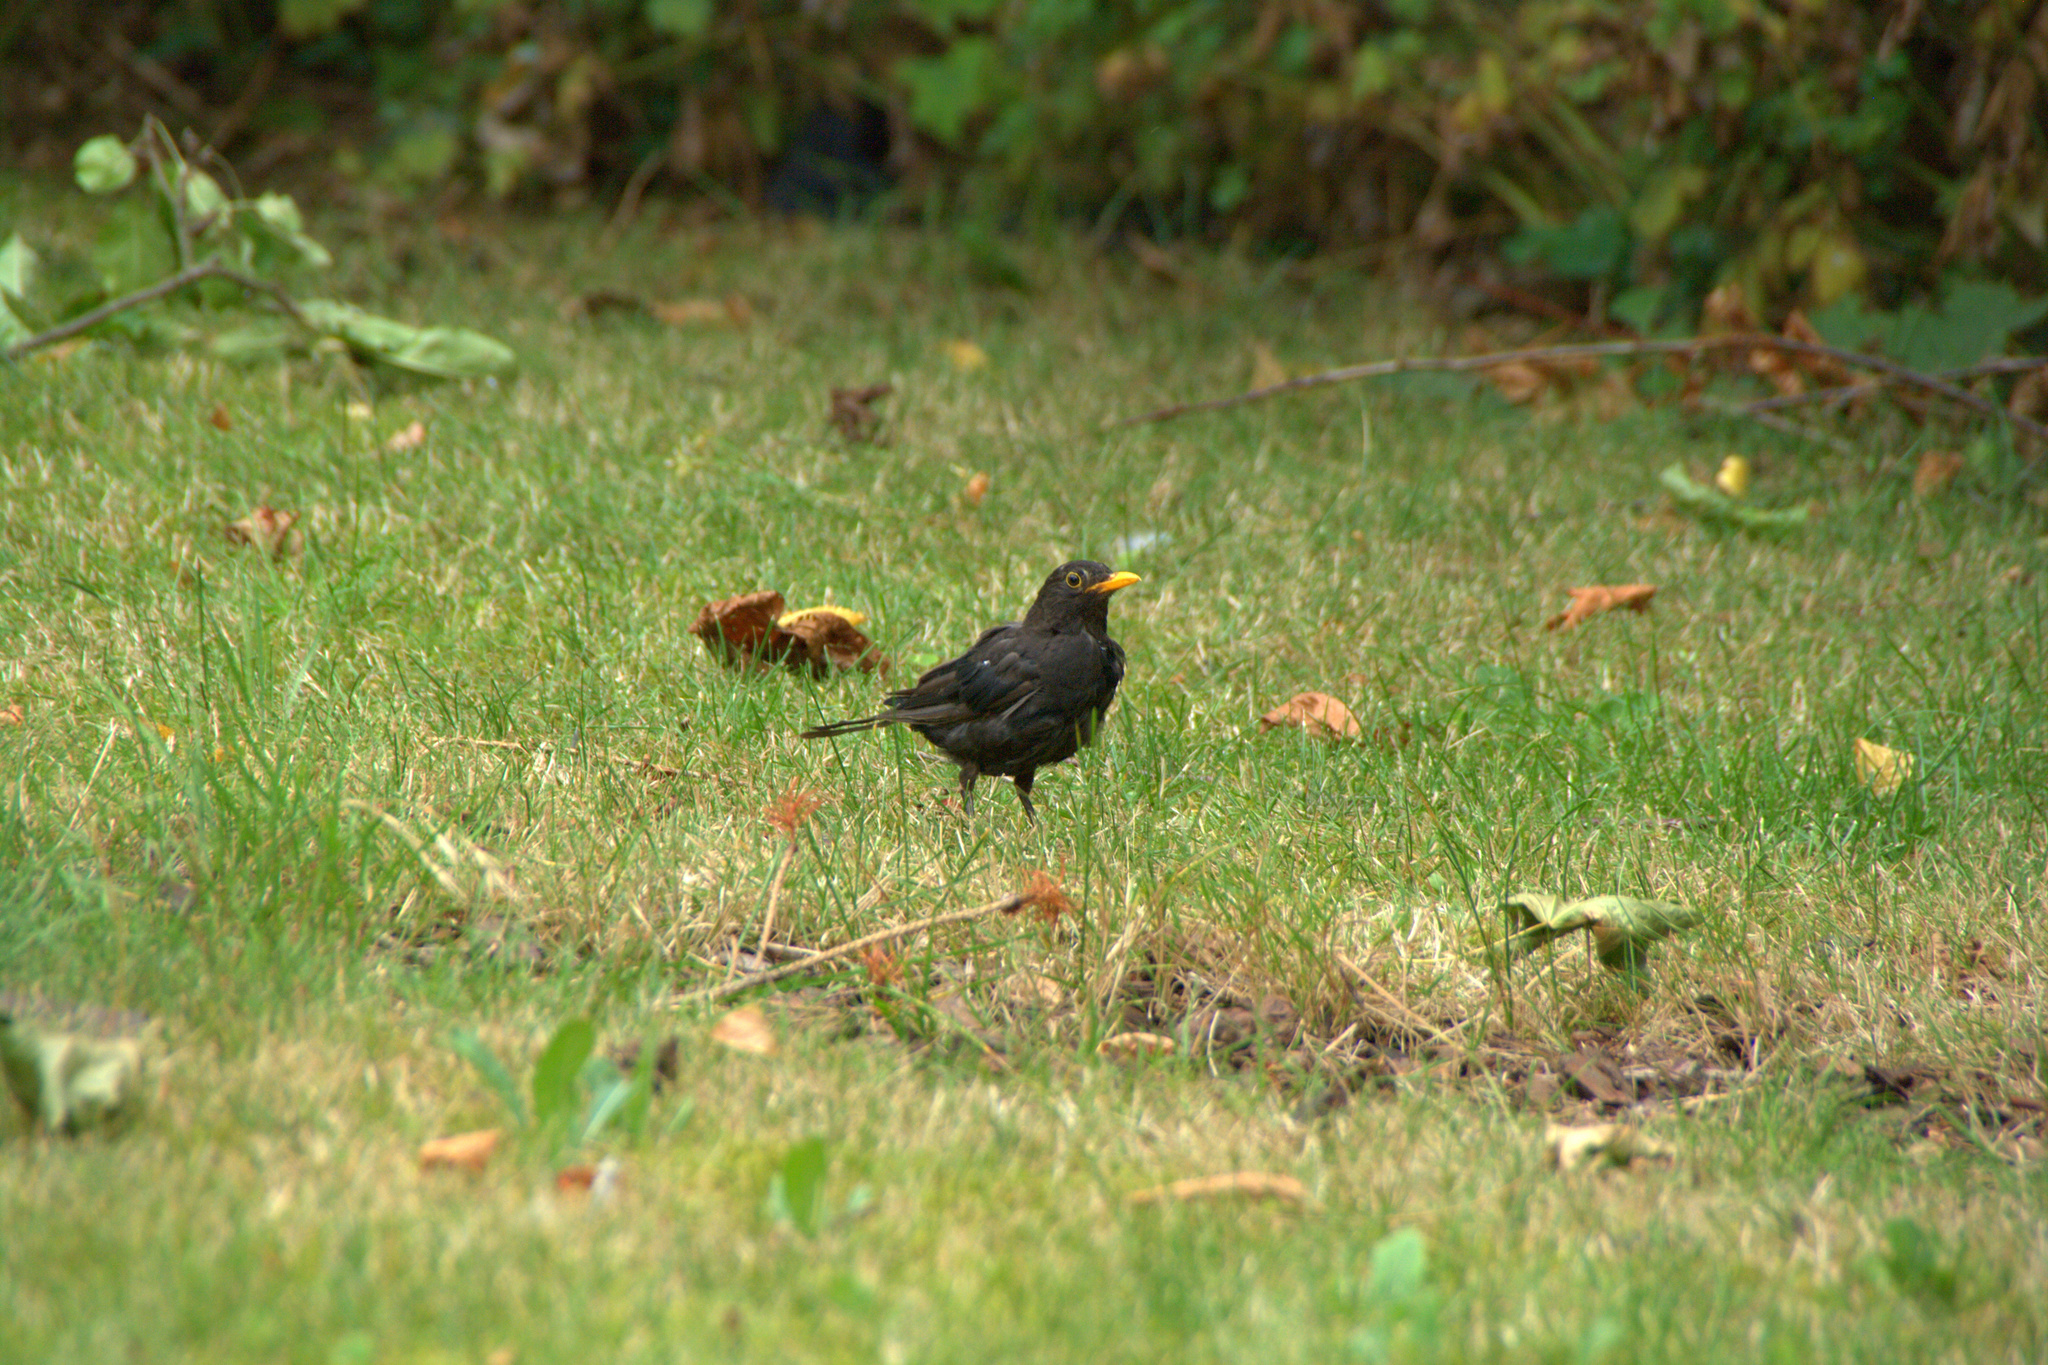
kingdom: Animalia
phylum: Chordata
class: Aves
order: Passeriformes
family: Turdidae
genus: Turdus
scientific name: Turdus merula
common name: Common blackbird
